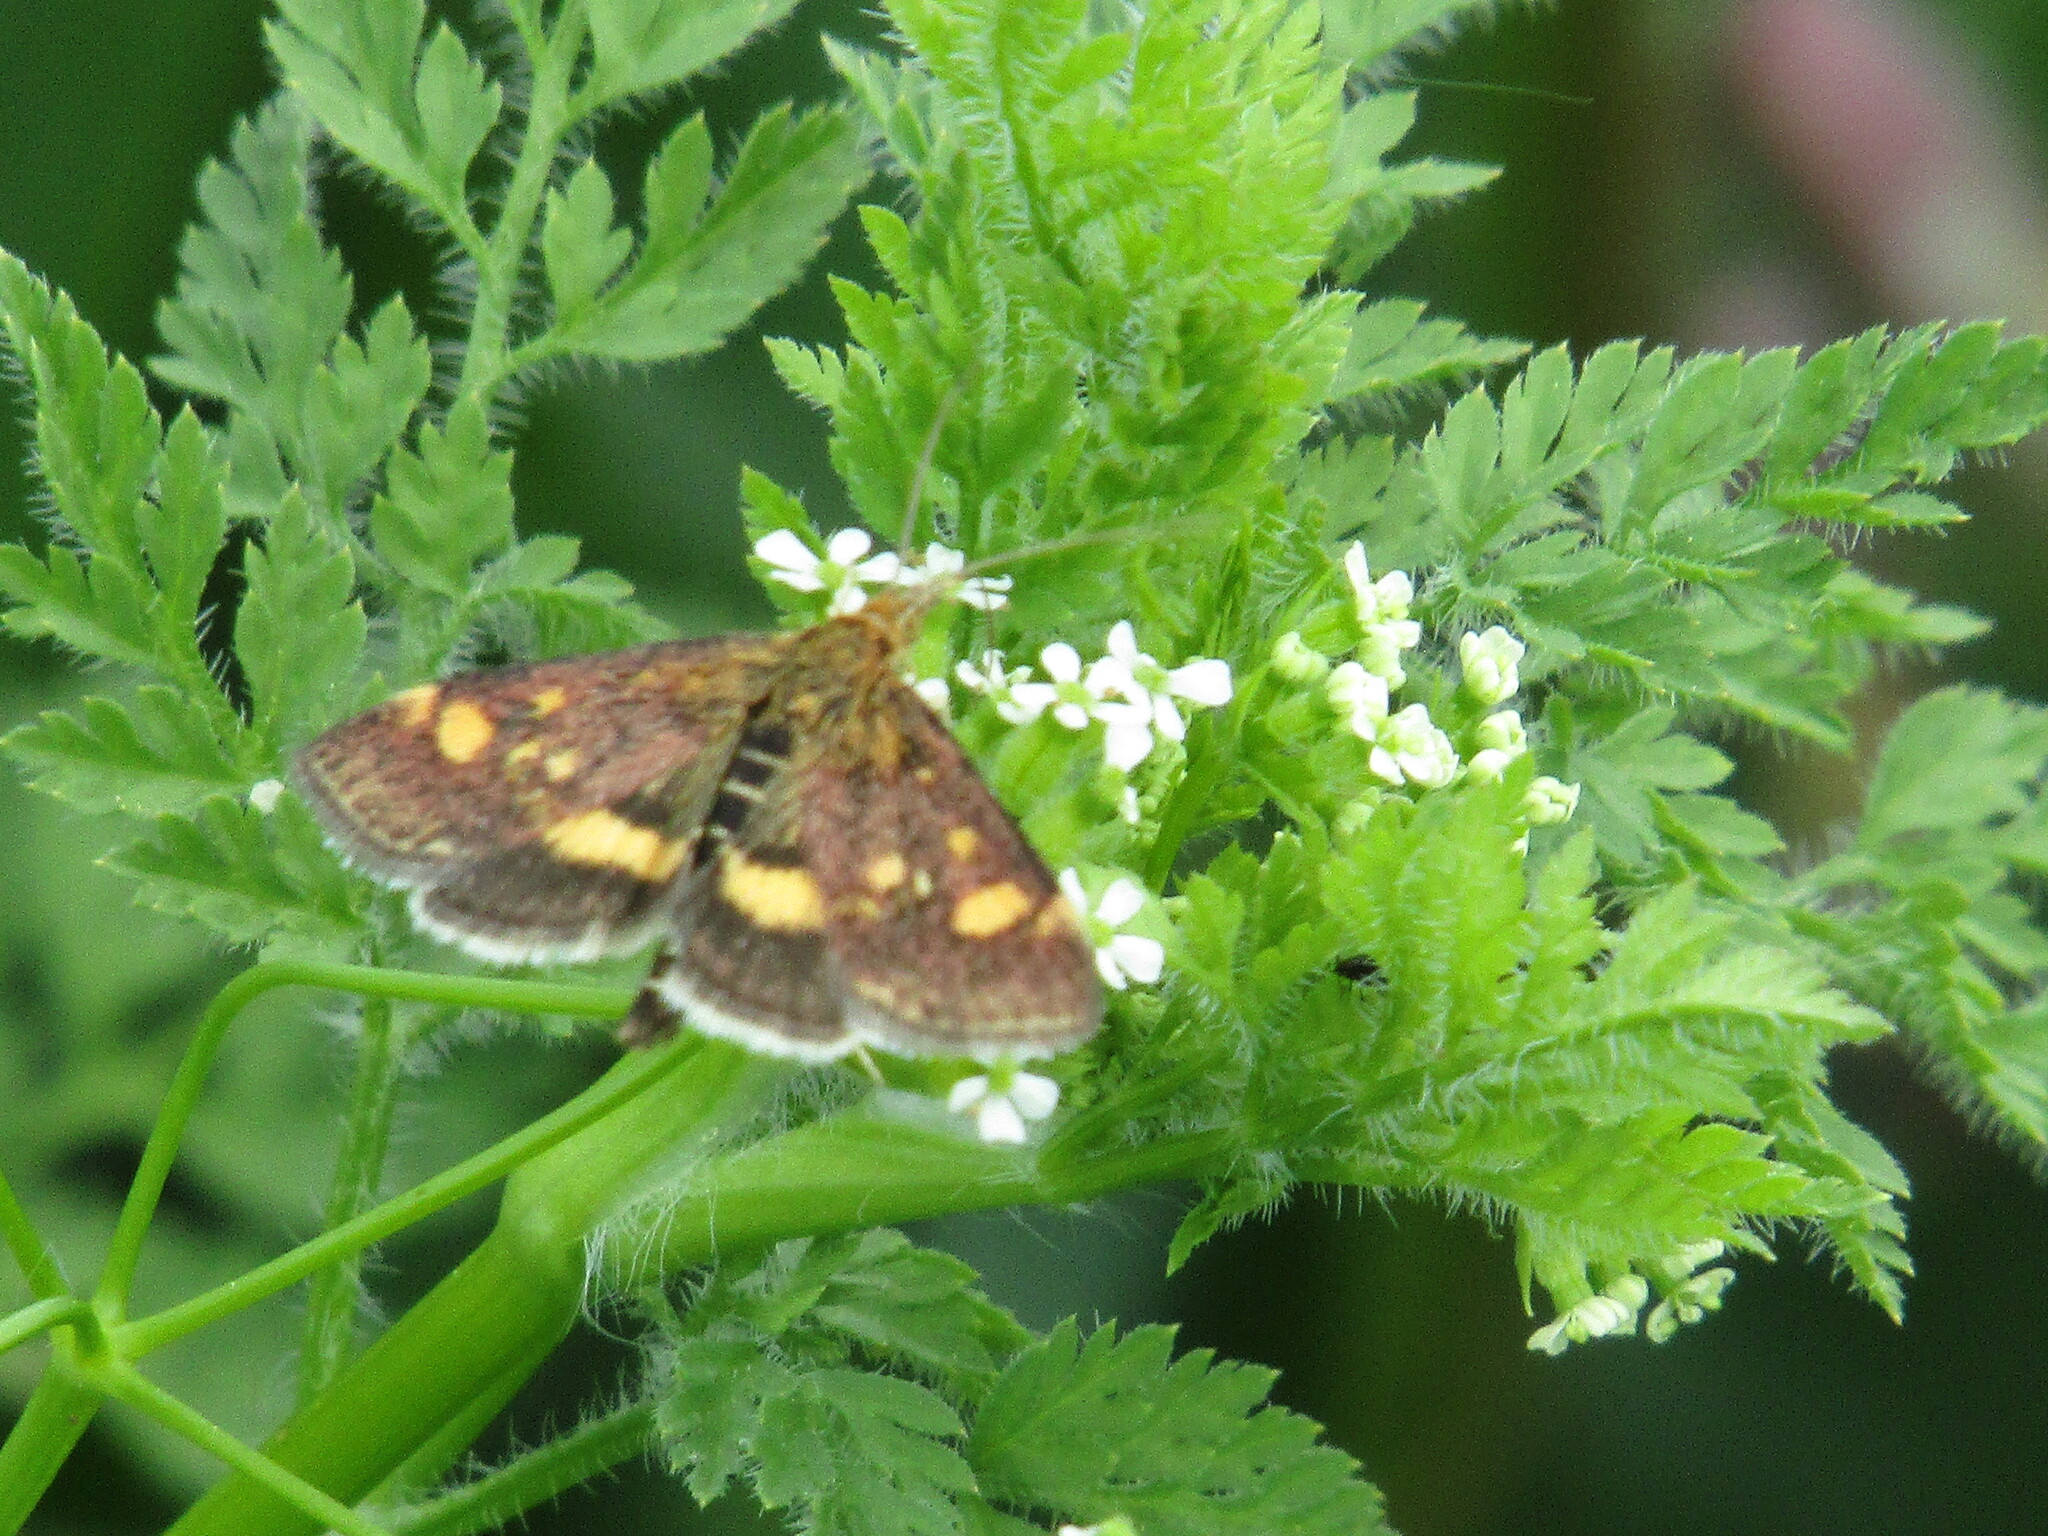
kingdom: Animalia
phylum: Arthropoda
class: Insecta
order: Lepidoptera
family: Crambidae
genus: Pyrausta
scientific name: Pyrausta aurata
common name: Small purple & gold
